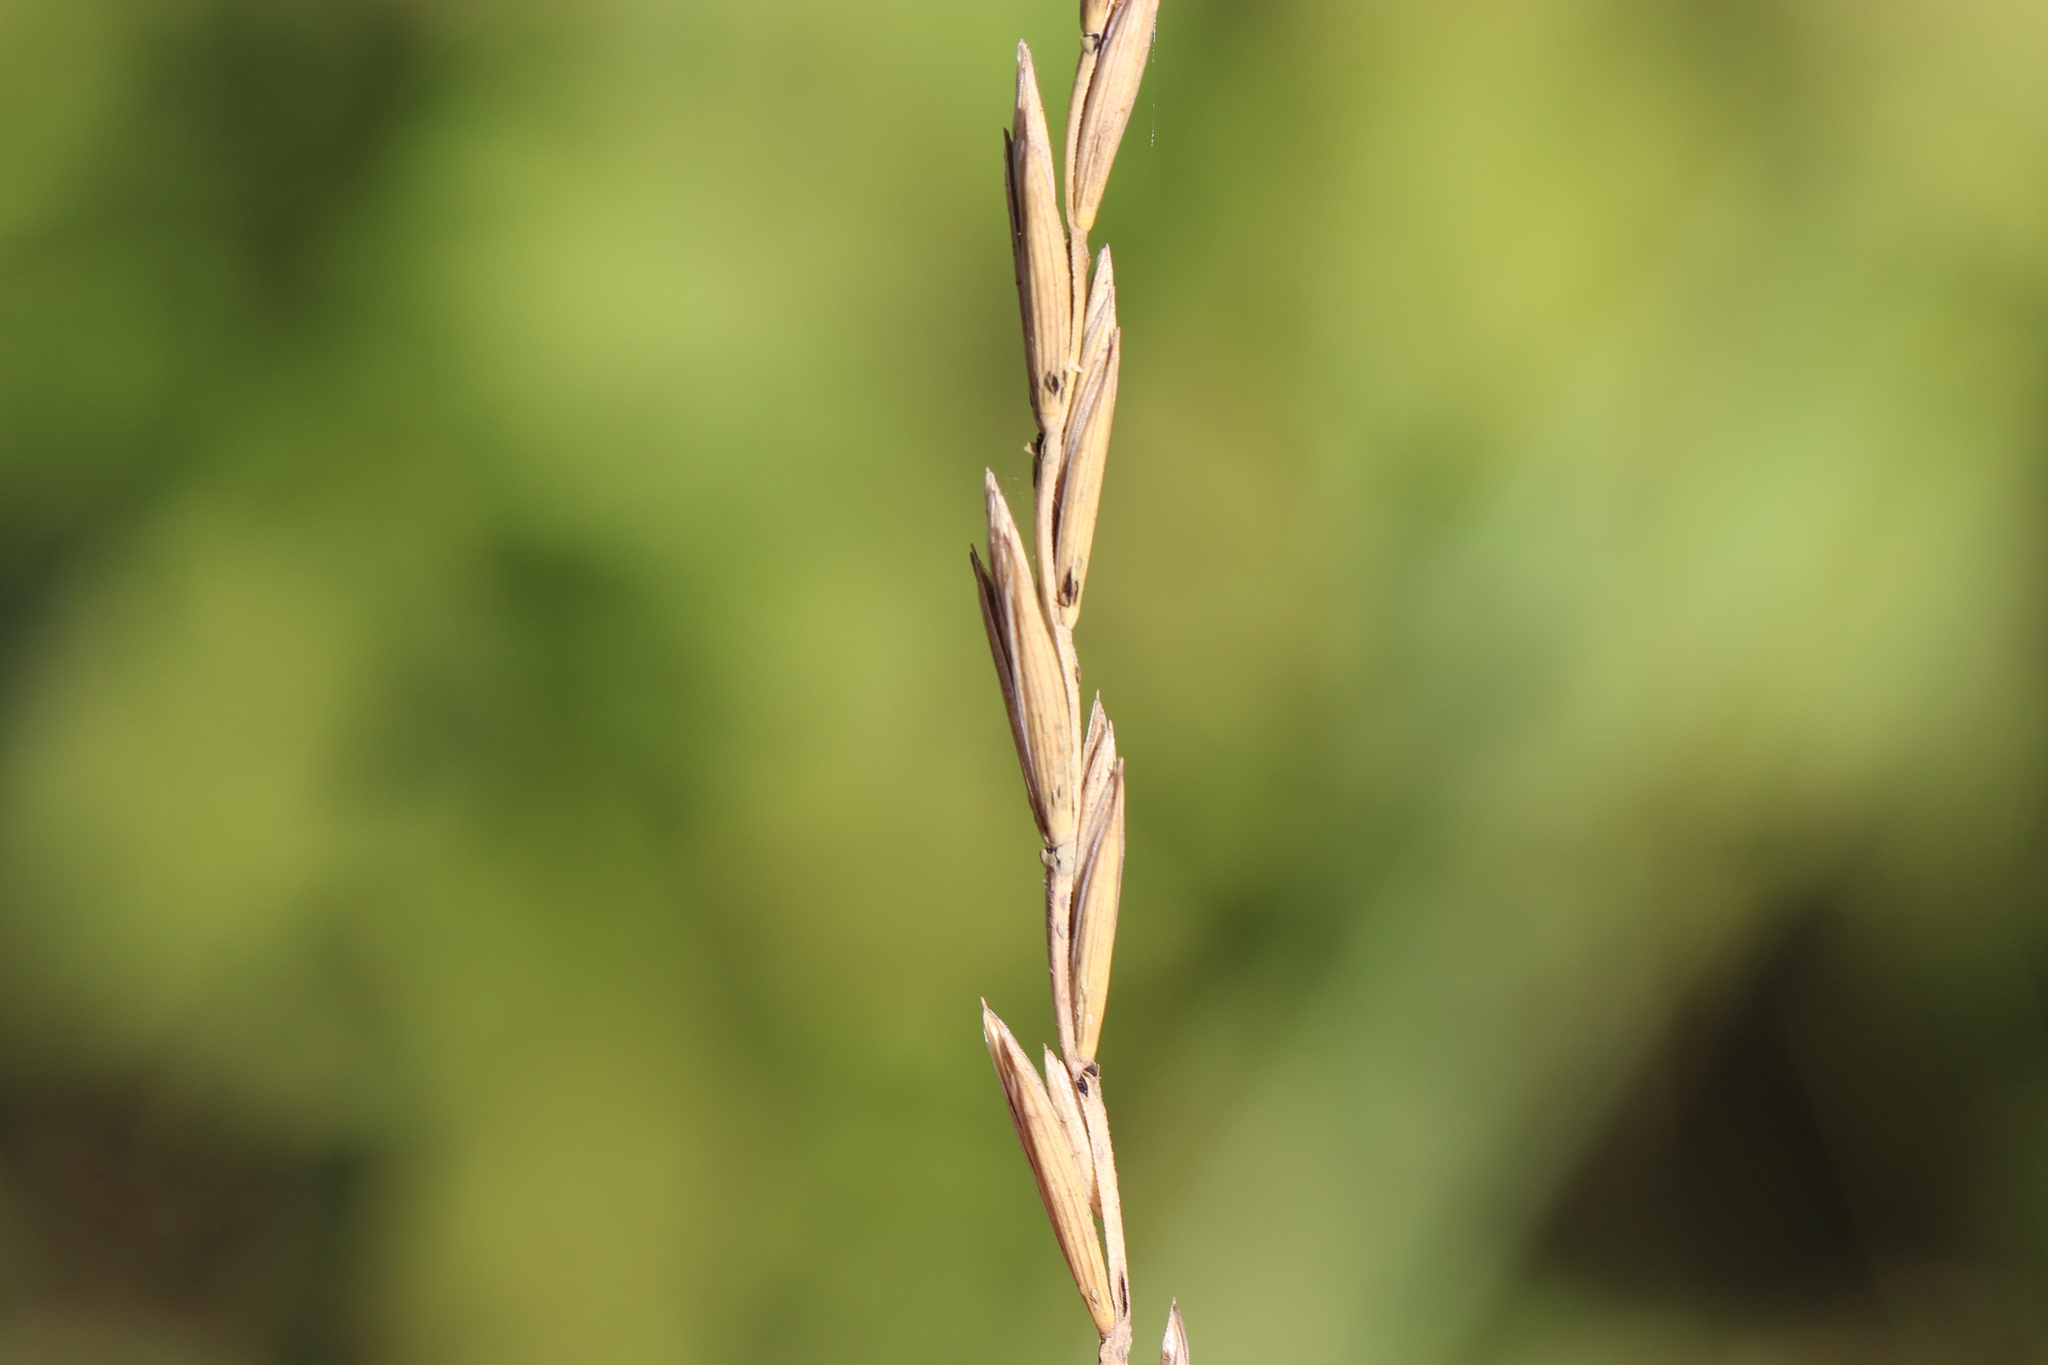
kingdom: Plantae
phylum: Tracheophyta
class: Liliopsida
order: Poales
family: Poaceae
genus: Elymus
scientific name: Elymus repens
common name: Quackgrass
